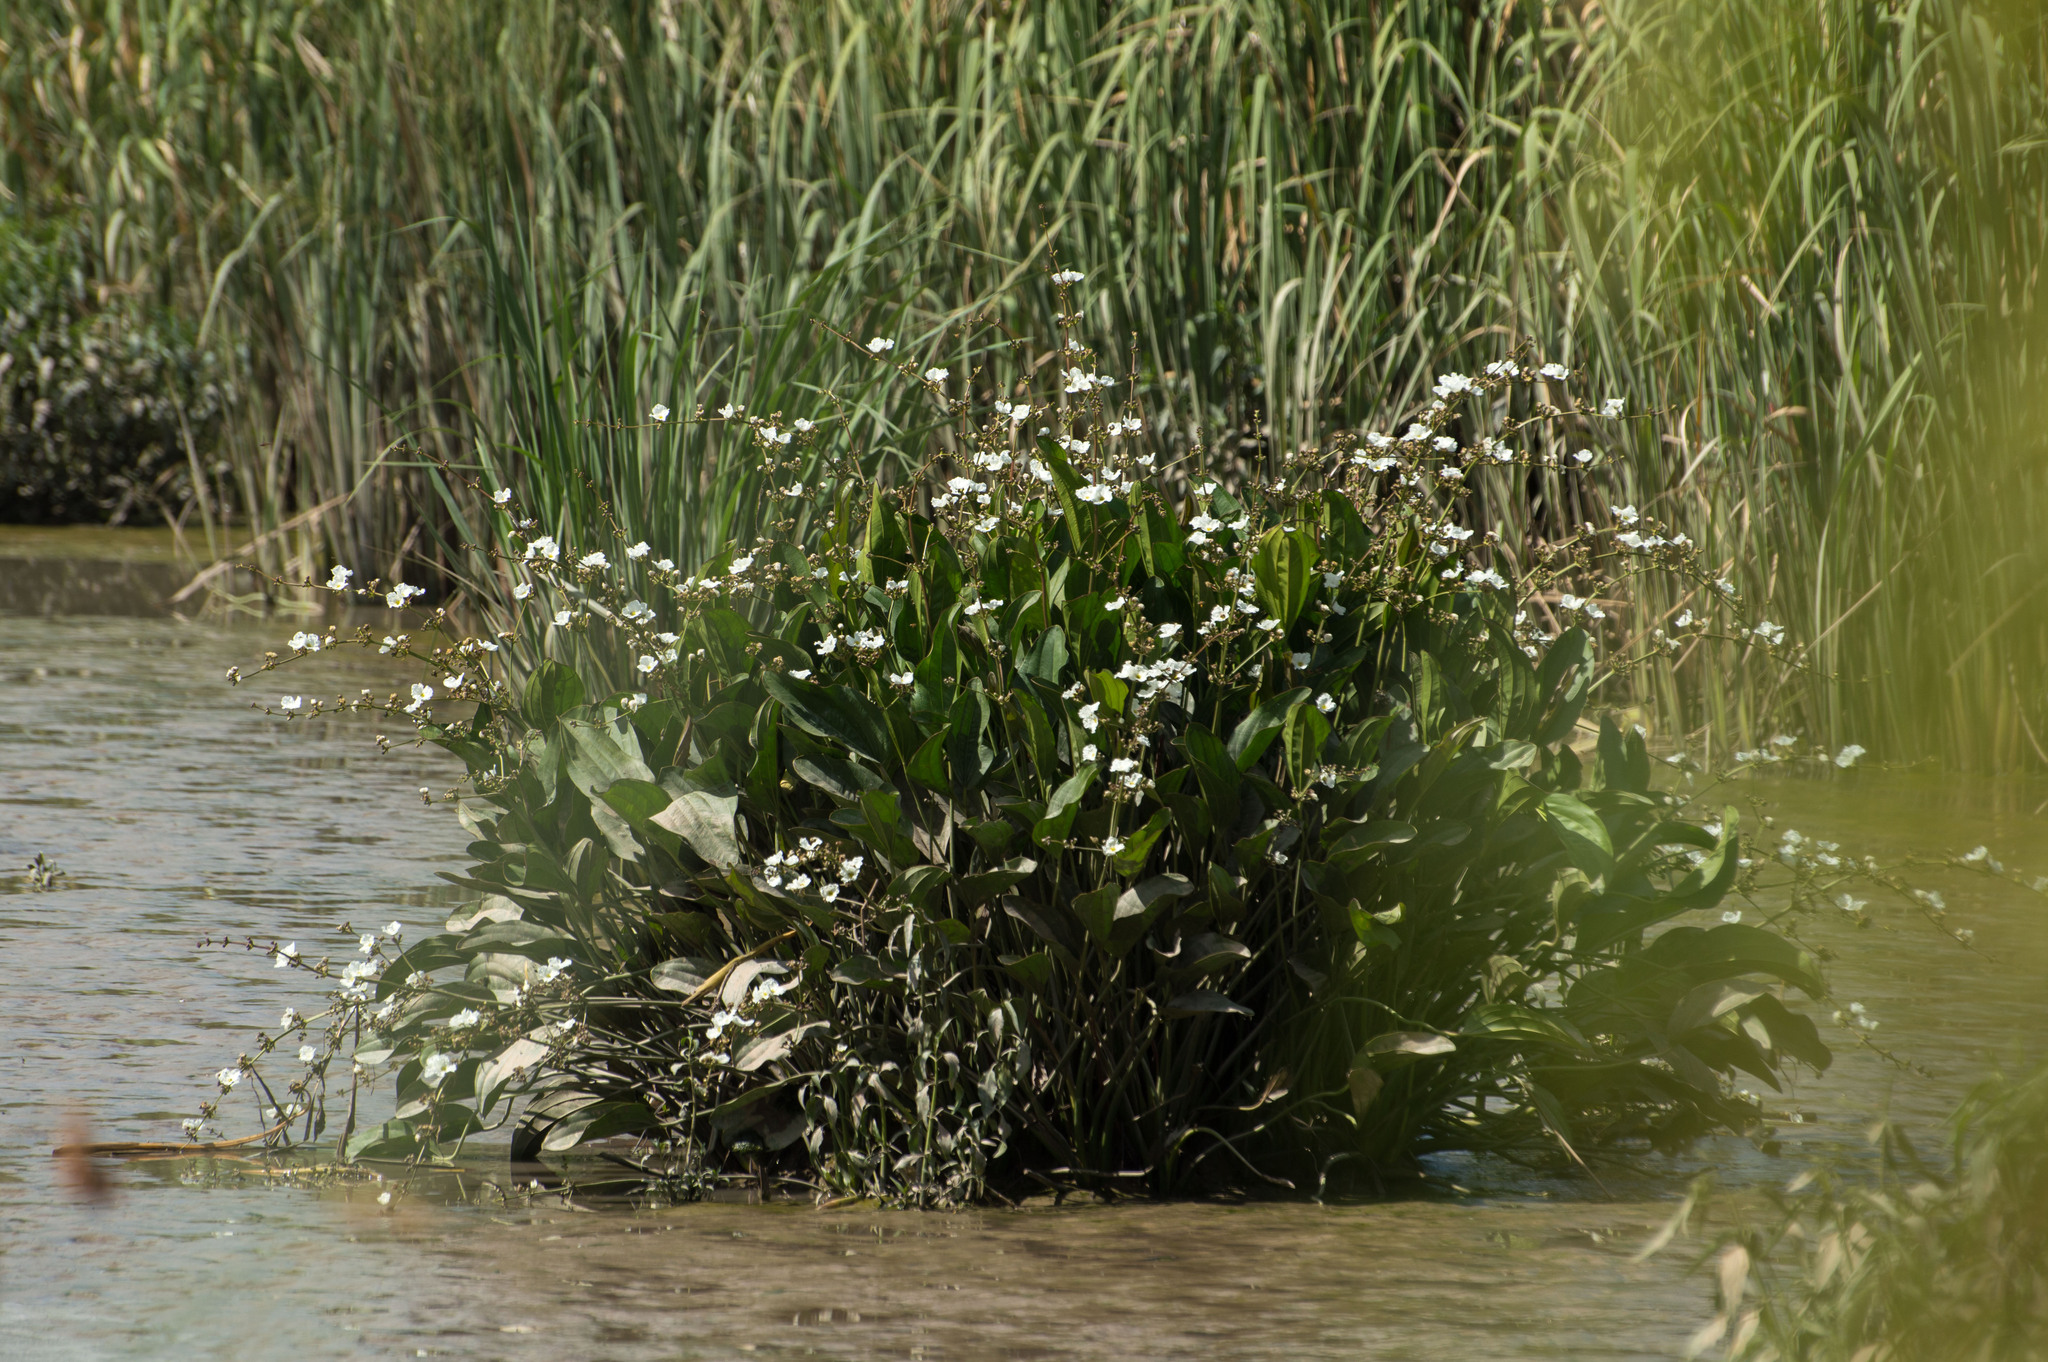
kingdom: Plantae
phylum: Tracheophyta
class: Liliopsida
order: Alismatales
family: Alismataceae
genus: Aquarius
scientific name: Aquarius grandiflorus
